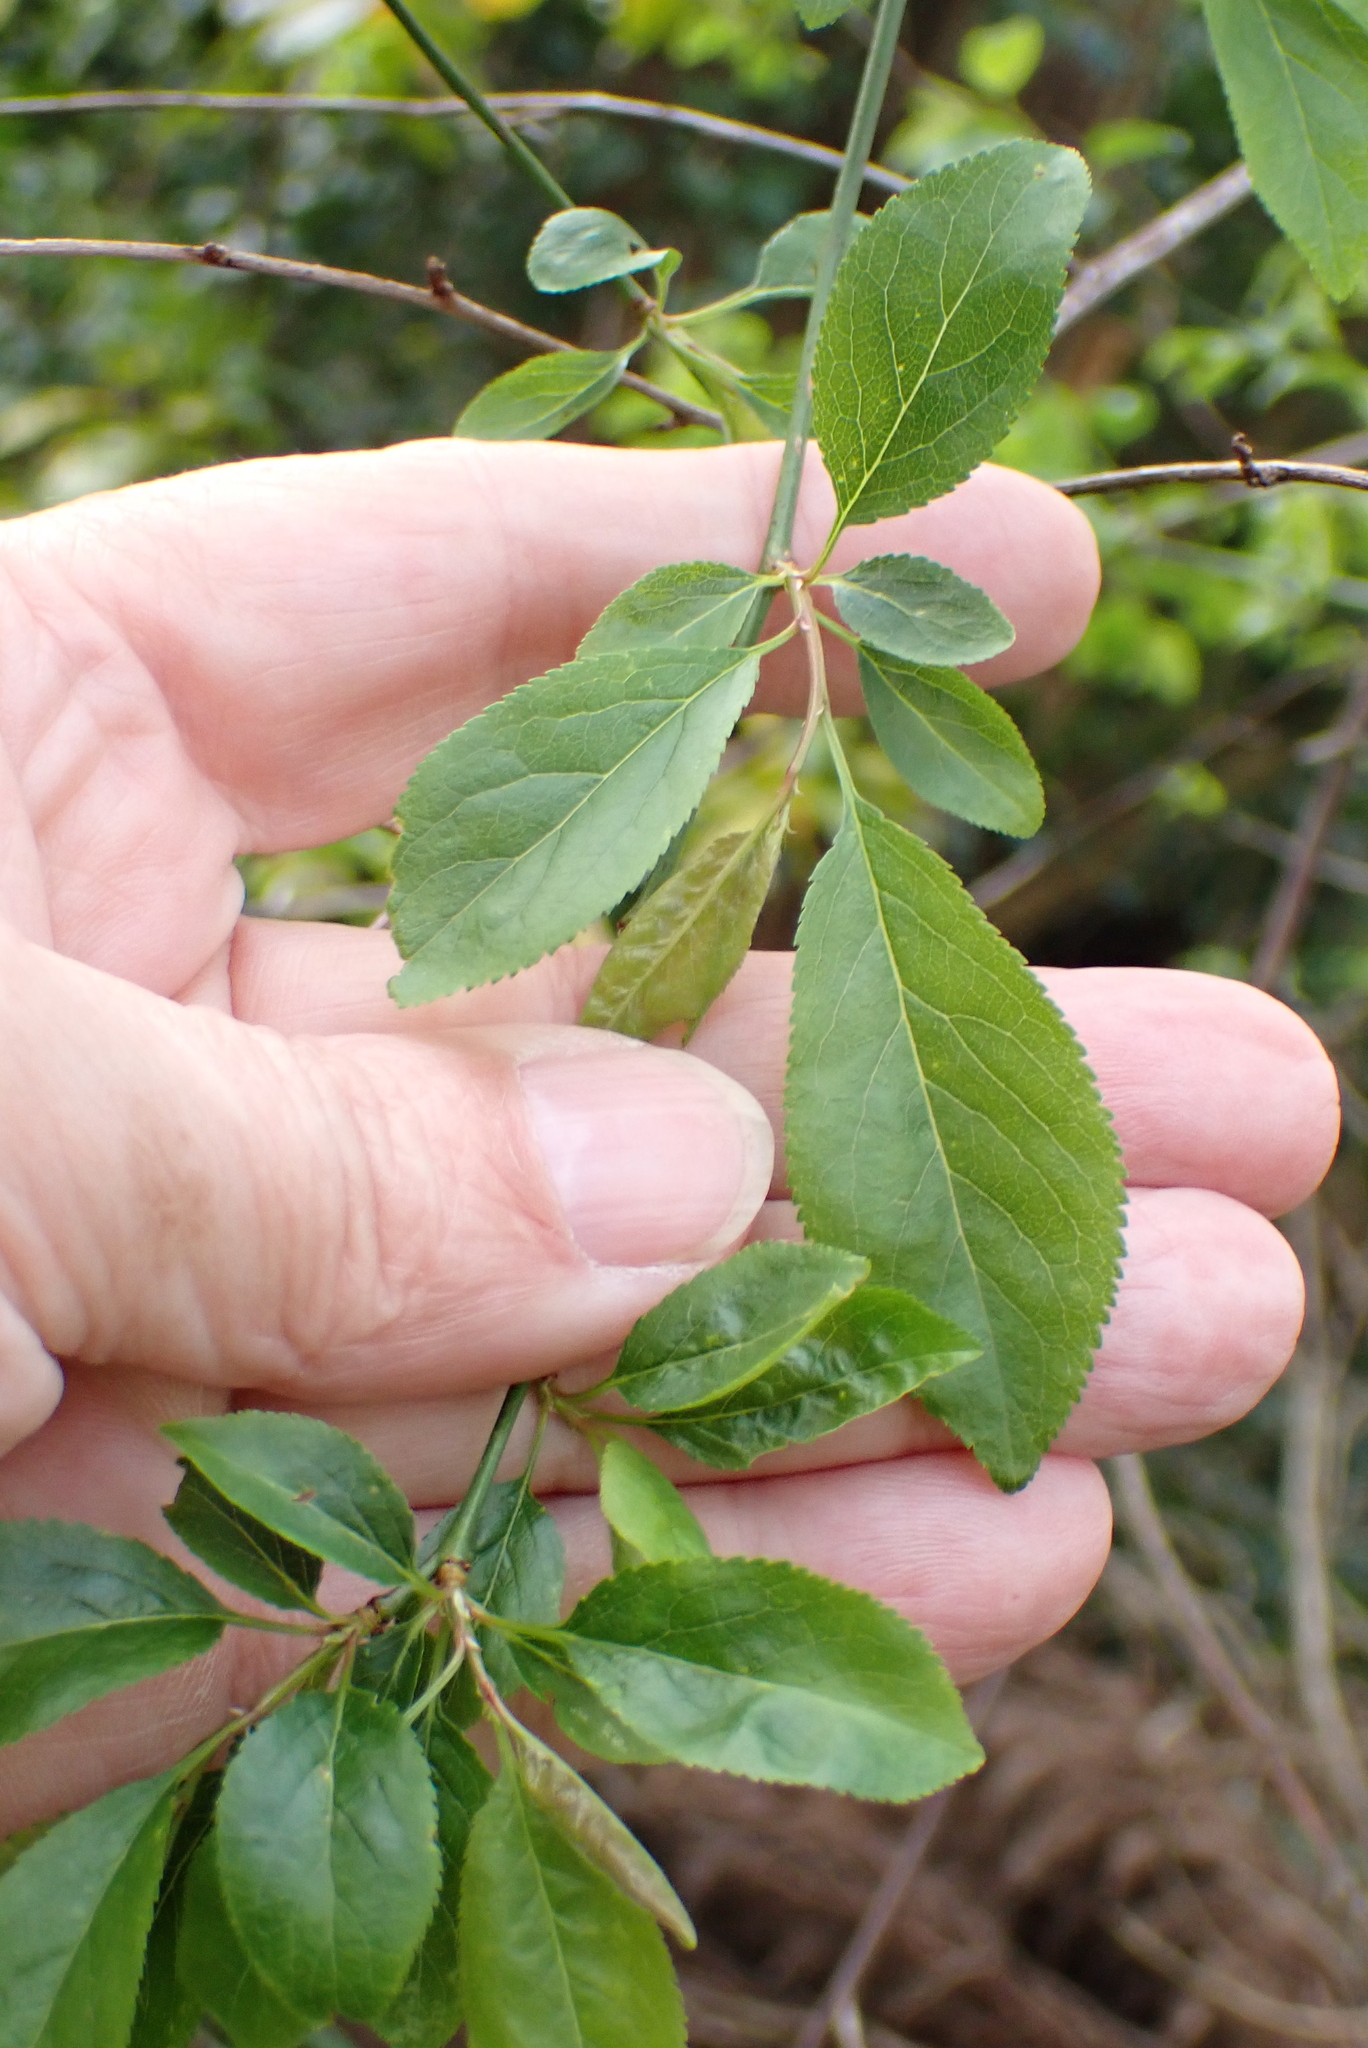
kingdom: Plantae
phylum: Tracheophyta
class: Magnoliopsida
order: Rosales
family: Rosaceae
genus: Prunus
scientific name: Prunus cerasifera
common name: Cherry plum
